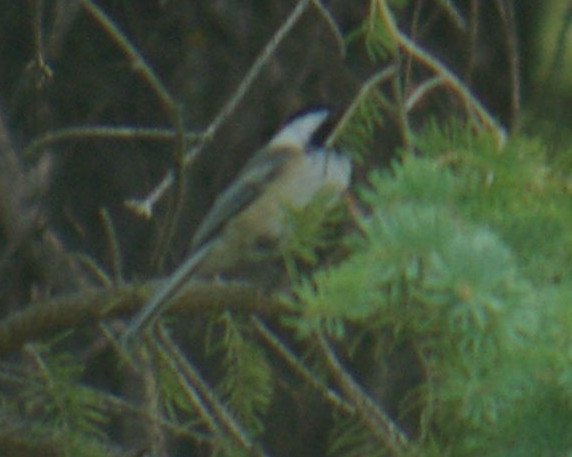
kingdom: Animalia
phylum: Chordata
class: Aves
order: Passeriformes
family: Paridae
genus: Poecile
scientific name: Poecile atricapillus
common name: Black-capped chickadee
